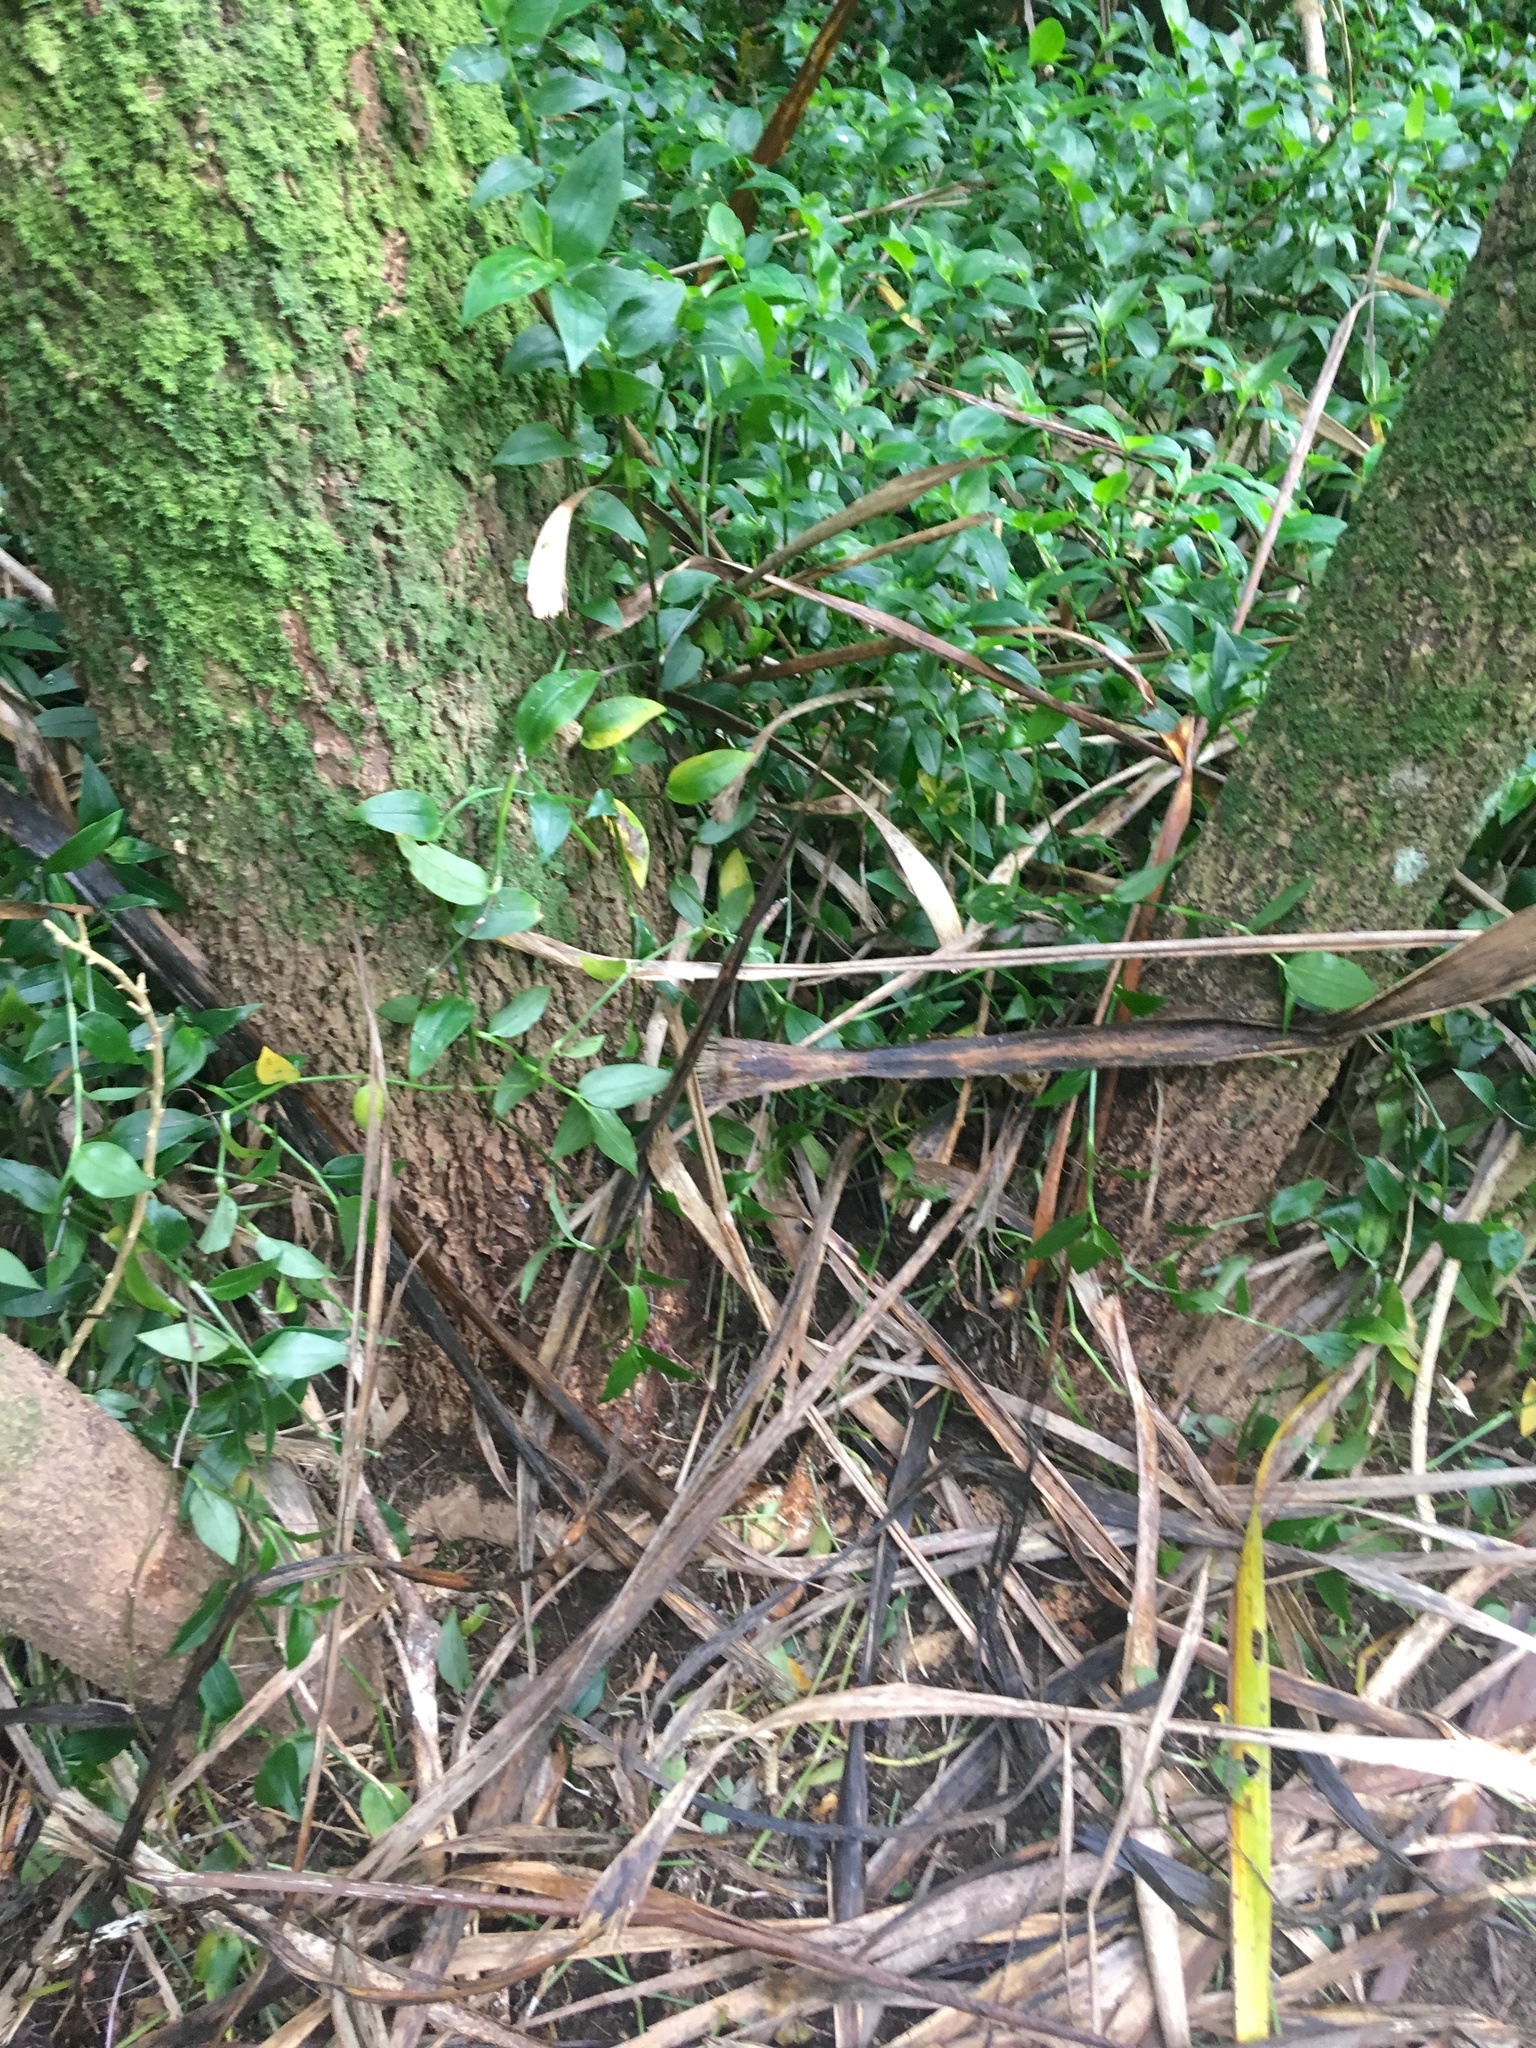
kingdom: Plantae
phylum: Tracheophyta
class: Liliopsida
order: Asparagales
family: Asparagaceae
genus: Cordyline
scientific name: Cordyline australis
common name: Cabbage-palm
